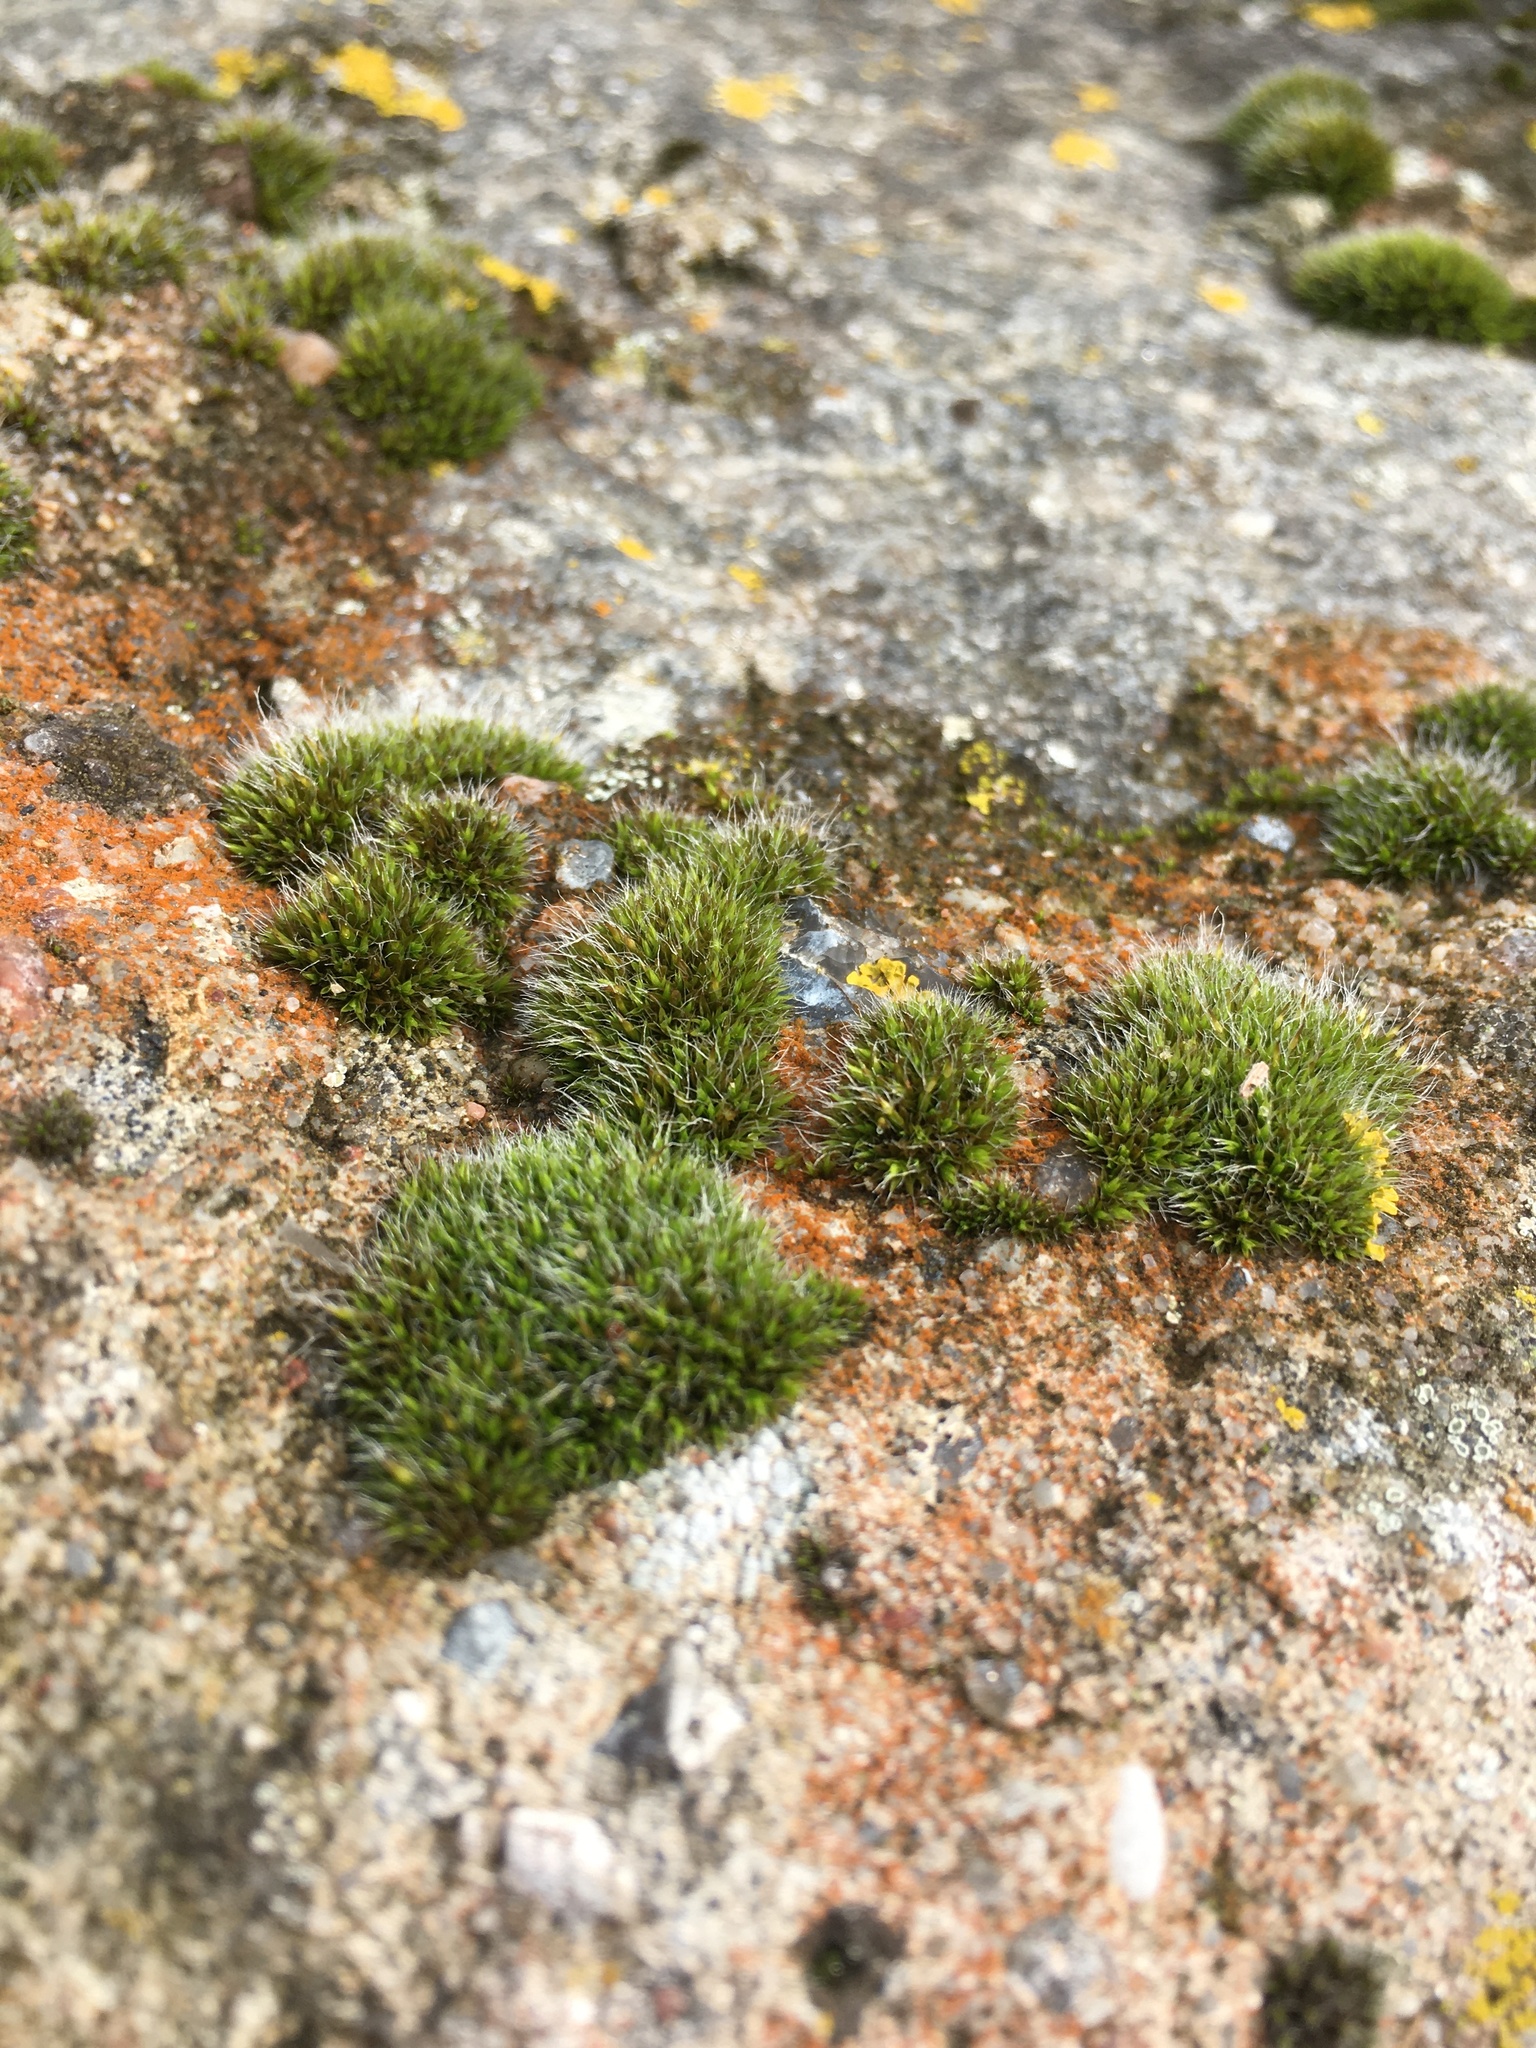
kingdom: Plantae
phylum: Bryophyta
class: Bryopsida
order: Grimmiales
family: Grimmiaceae
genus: Grimmia
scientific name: Grimmia pulvinata
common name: Grey-cushioned grimmia
